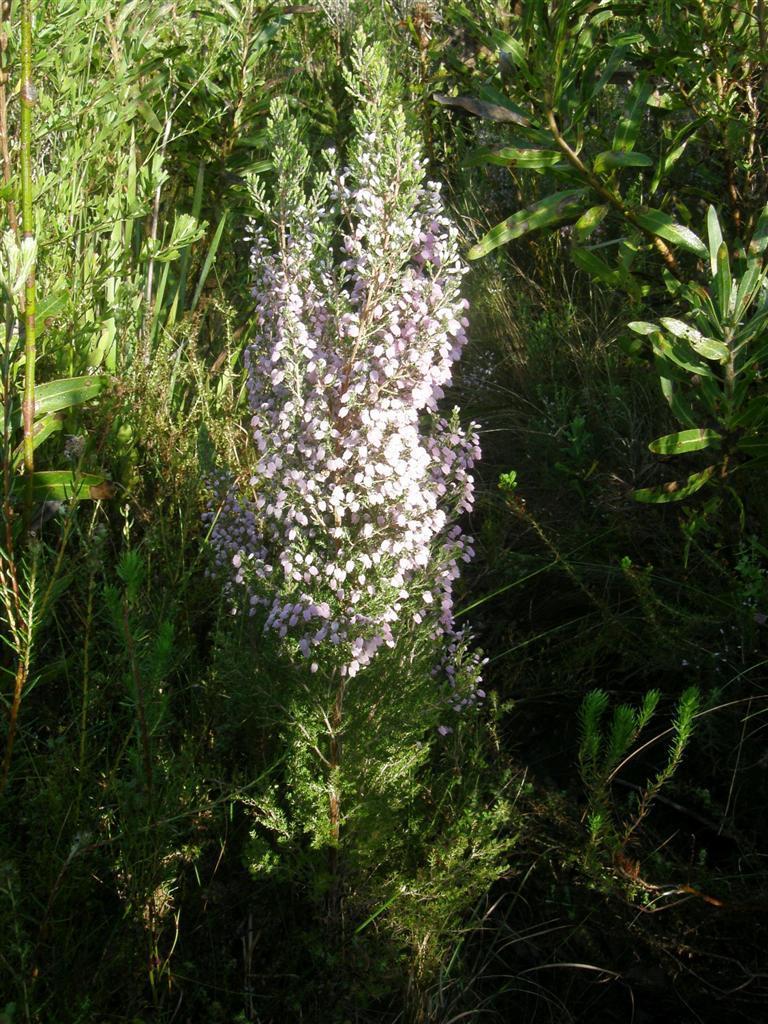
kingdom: Plantae
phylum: Tracheophyta
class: Magnoliopsida
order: Ericales
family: Ericaceae
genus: Erica
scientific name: Erica tomentosa
